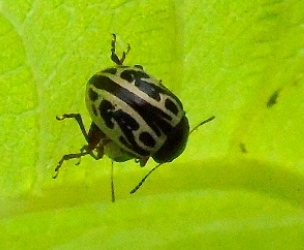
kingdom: Animalia
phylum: Arthropoda
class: Insecta
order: Coleoptera
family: Chrysomelidae
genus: Zygogramma
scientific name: Zygogramma
